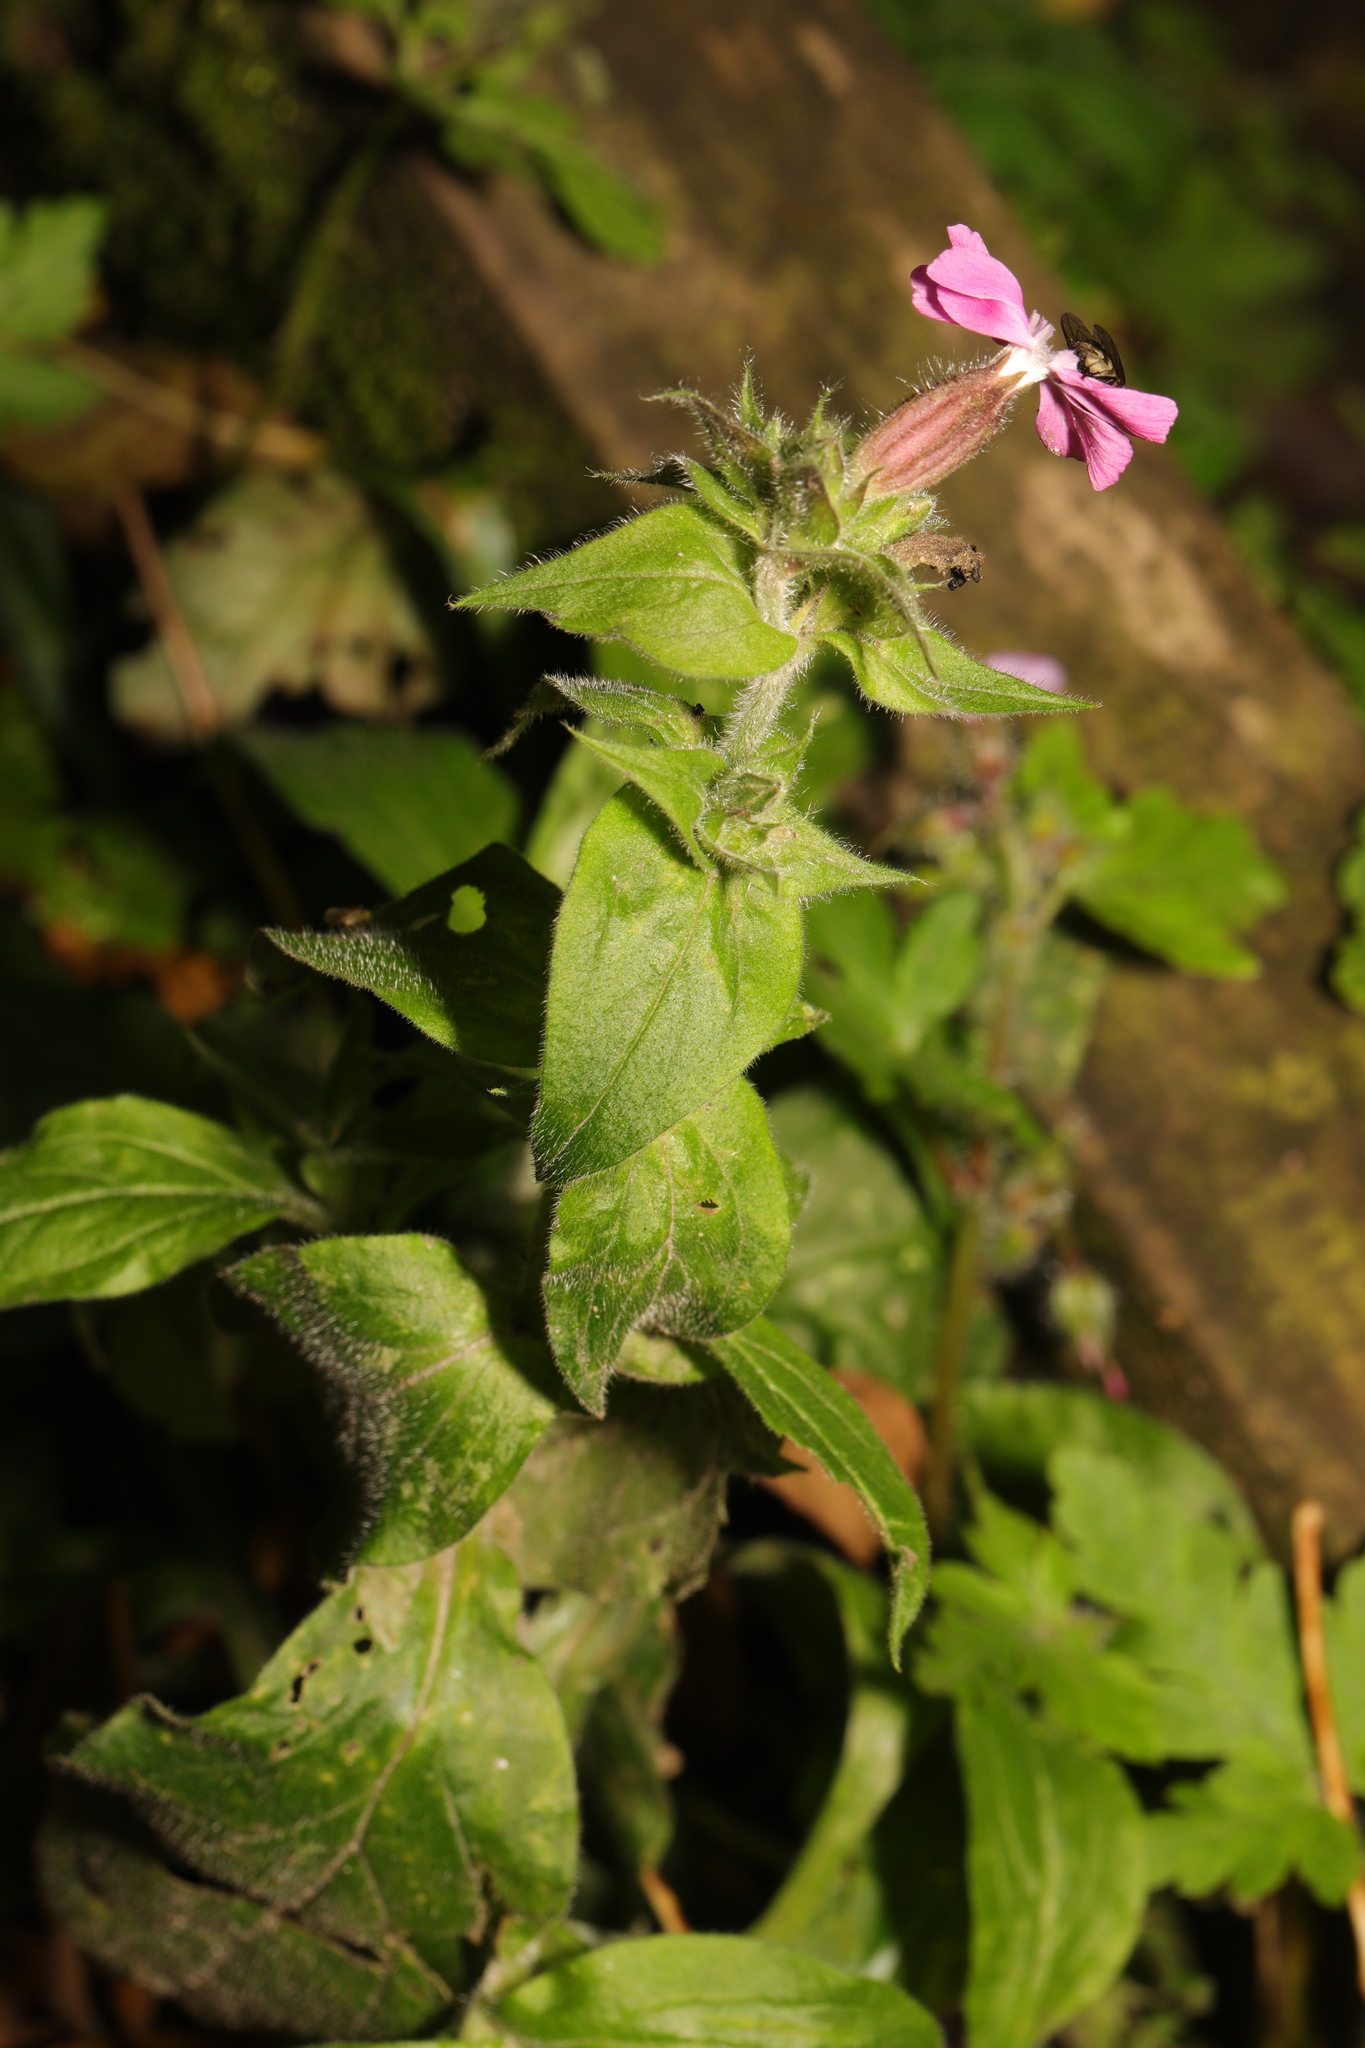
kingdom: Plantae
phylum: Tracheophyta
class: Magnoliopsida
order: Caryophyllales
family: Caryophyllaceae
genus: Silene
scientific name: Silene dioica
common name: Red campion
